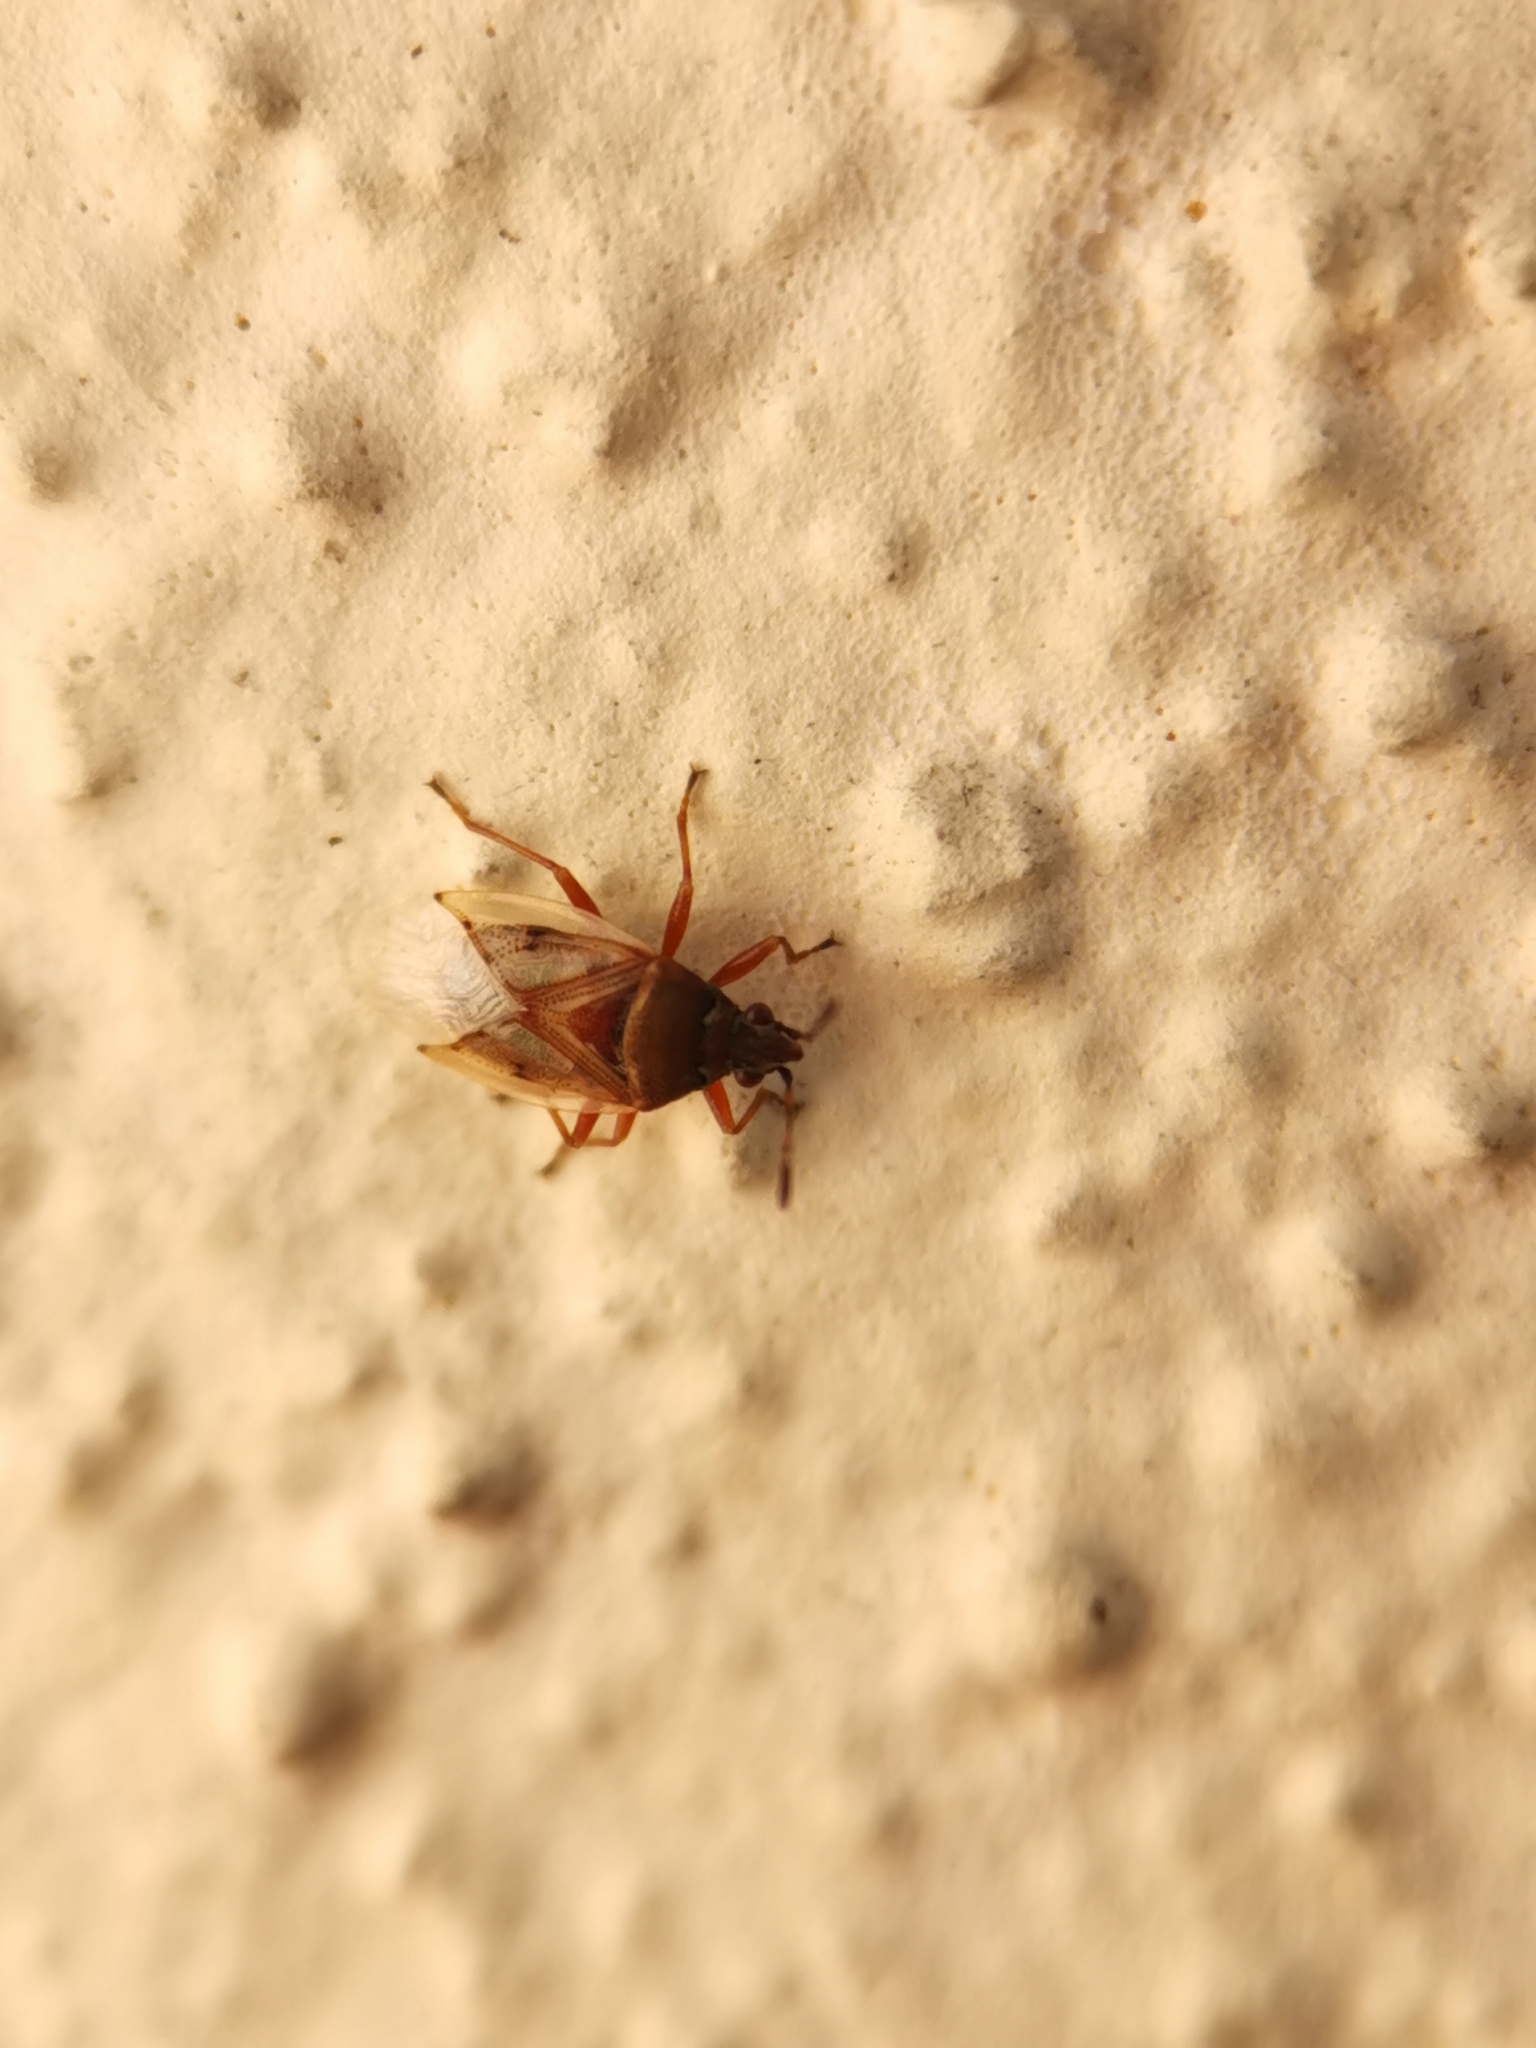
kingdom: Animalia
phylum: Arthropoda
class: Insecta
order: Hemiptera
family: Lygaeidae
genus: Kleidocerys
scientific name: Kleidocerys resedae
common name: Birch catkin bug
